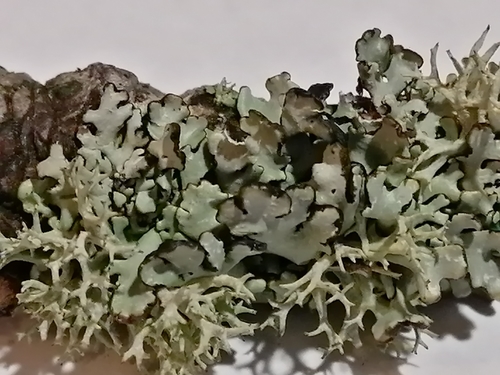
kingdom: Fungi
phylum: Ascomycota
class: Lecanoromycetes
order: Lecanorales
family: Parmeliaceae
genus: Hypogymnia
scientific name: Hypogymnia physodes
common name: Dark crottle
